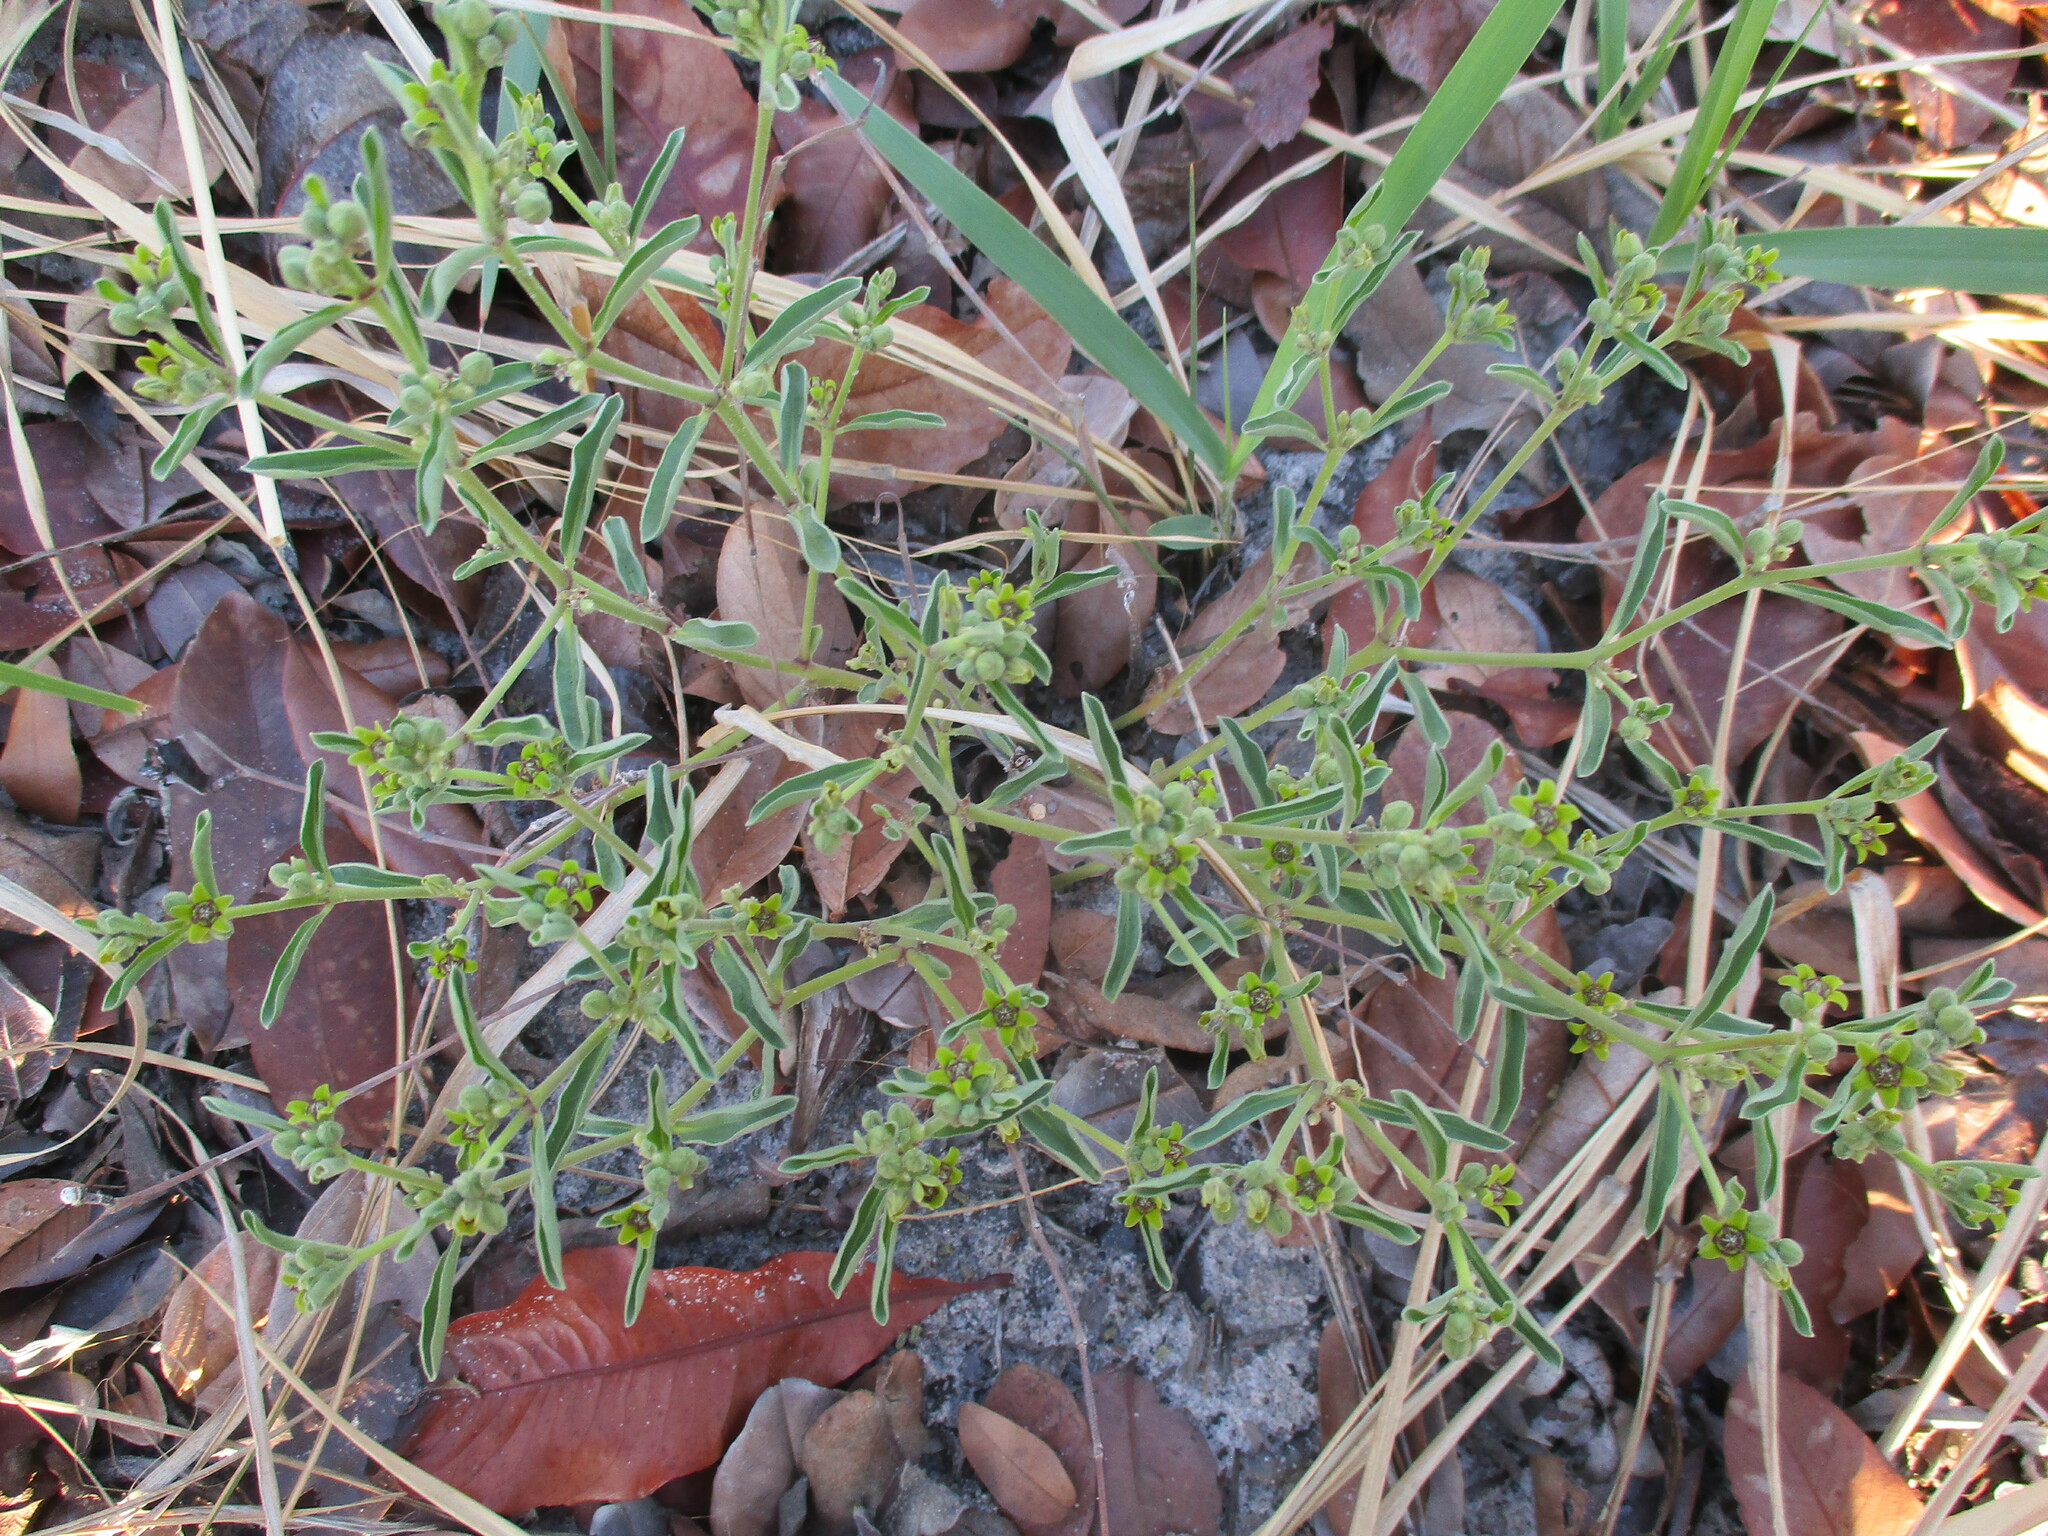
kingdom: Plantae
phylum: Tracheophyta
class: Magnoliopsida
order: Gentianales
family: Apocynaceae
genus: Raphionacme
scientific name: Raphionacme velutina
